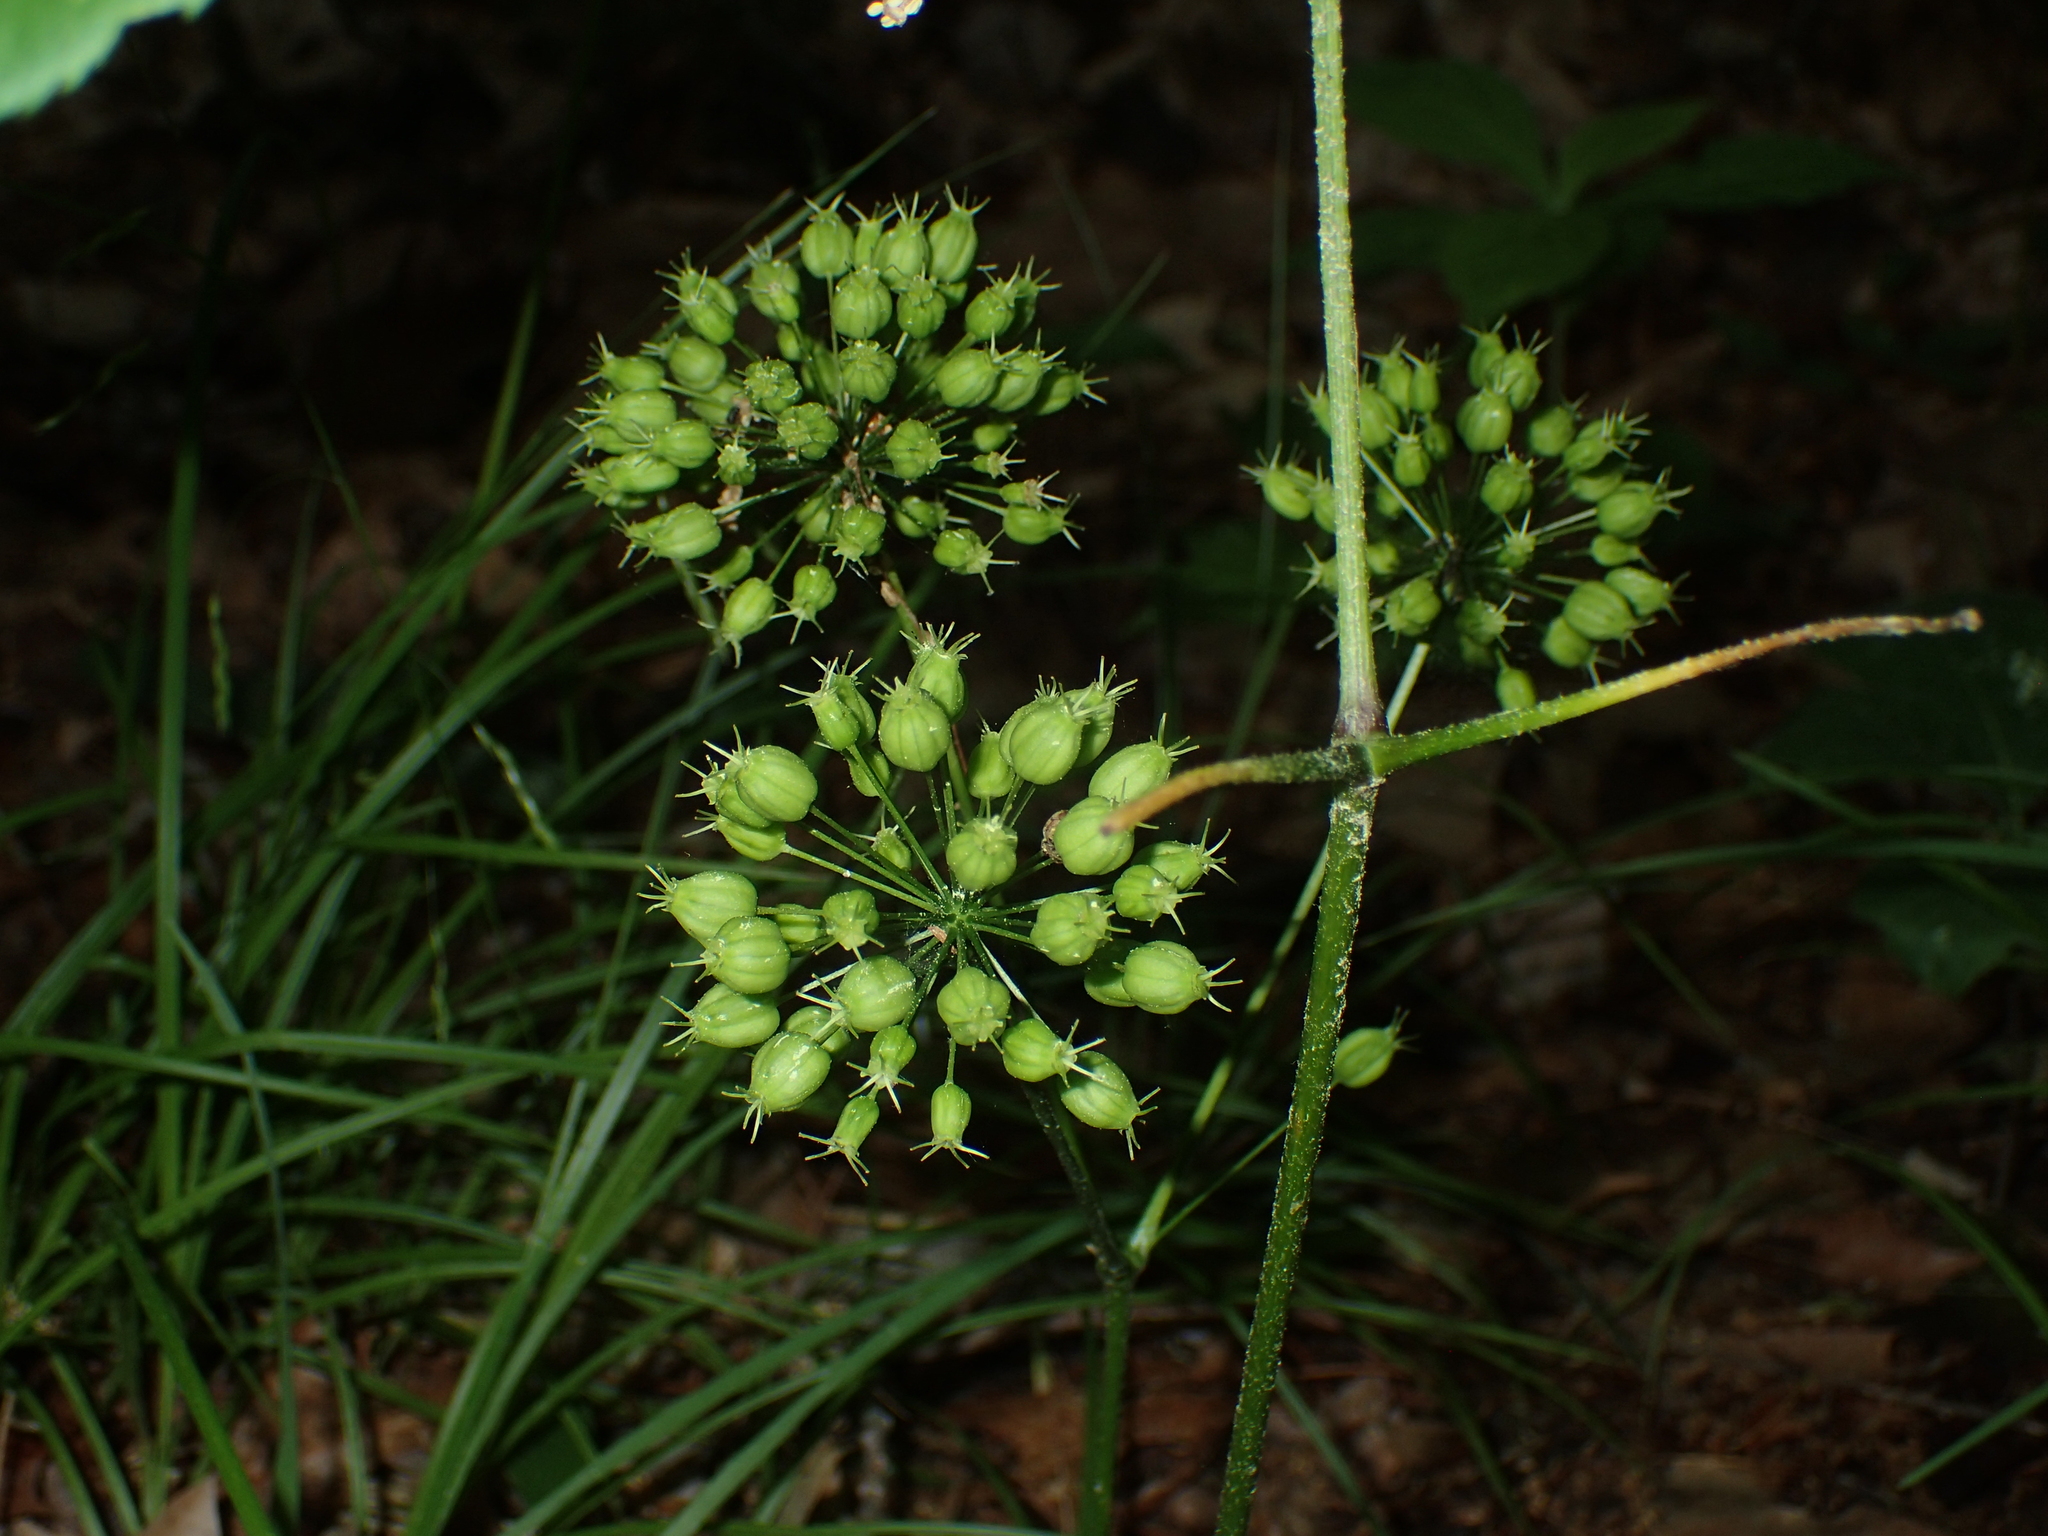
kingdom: Plantae
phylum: Tracheophyta
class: Magnoliopsida
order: Apiales
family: Araliaceae
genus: Aralia
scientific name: Aralia nudicaulis
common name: Wild sarsaparilla
